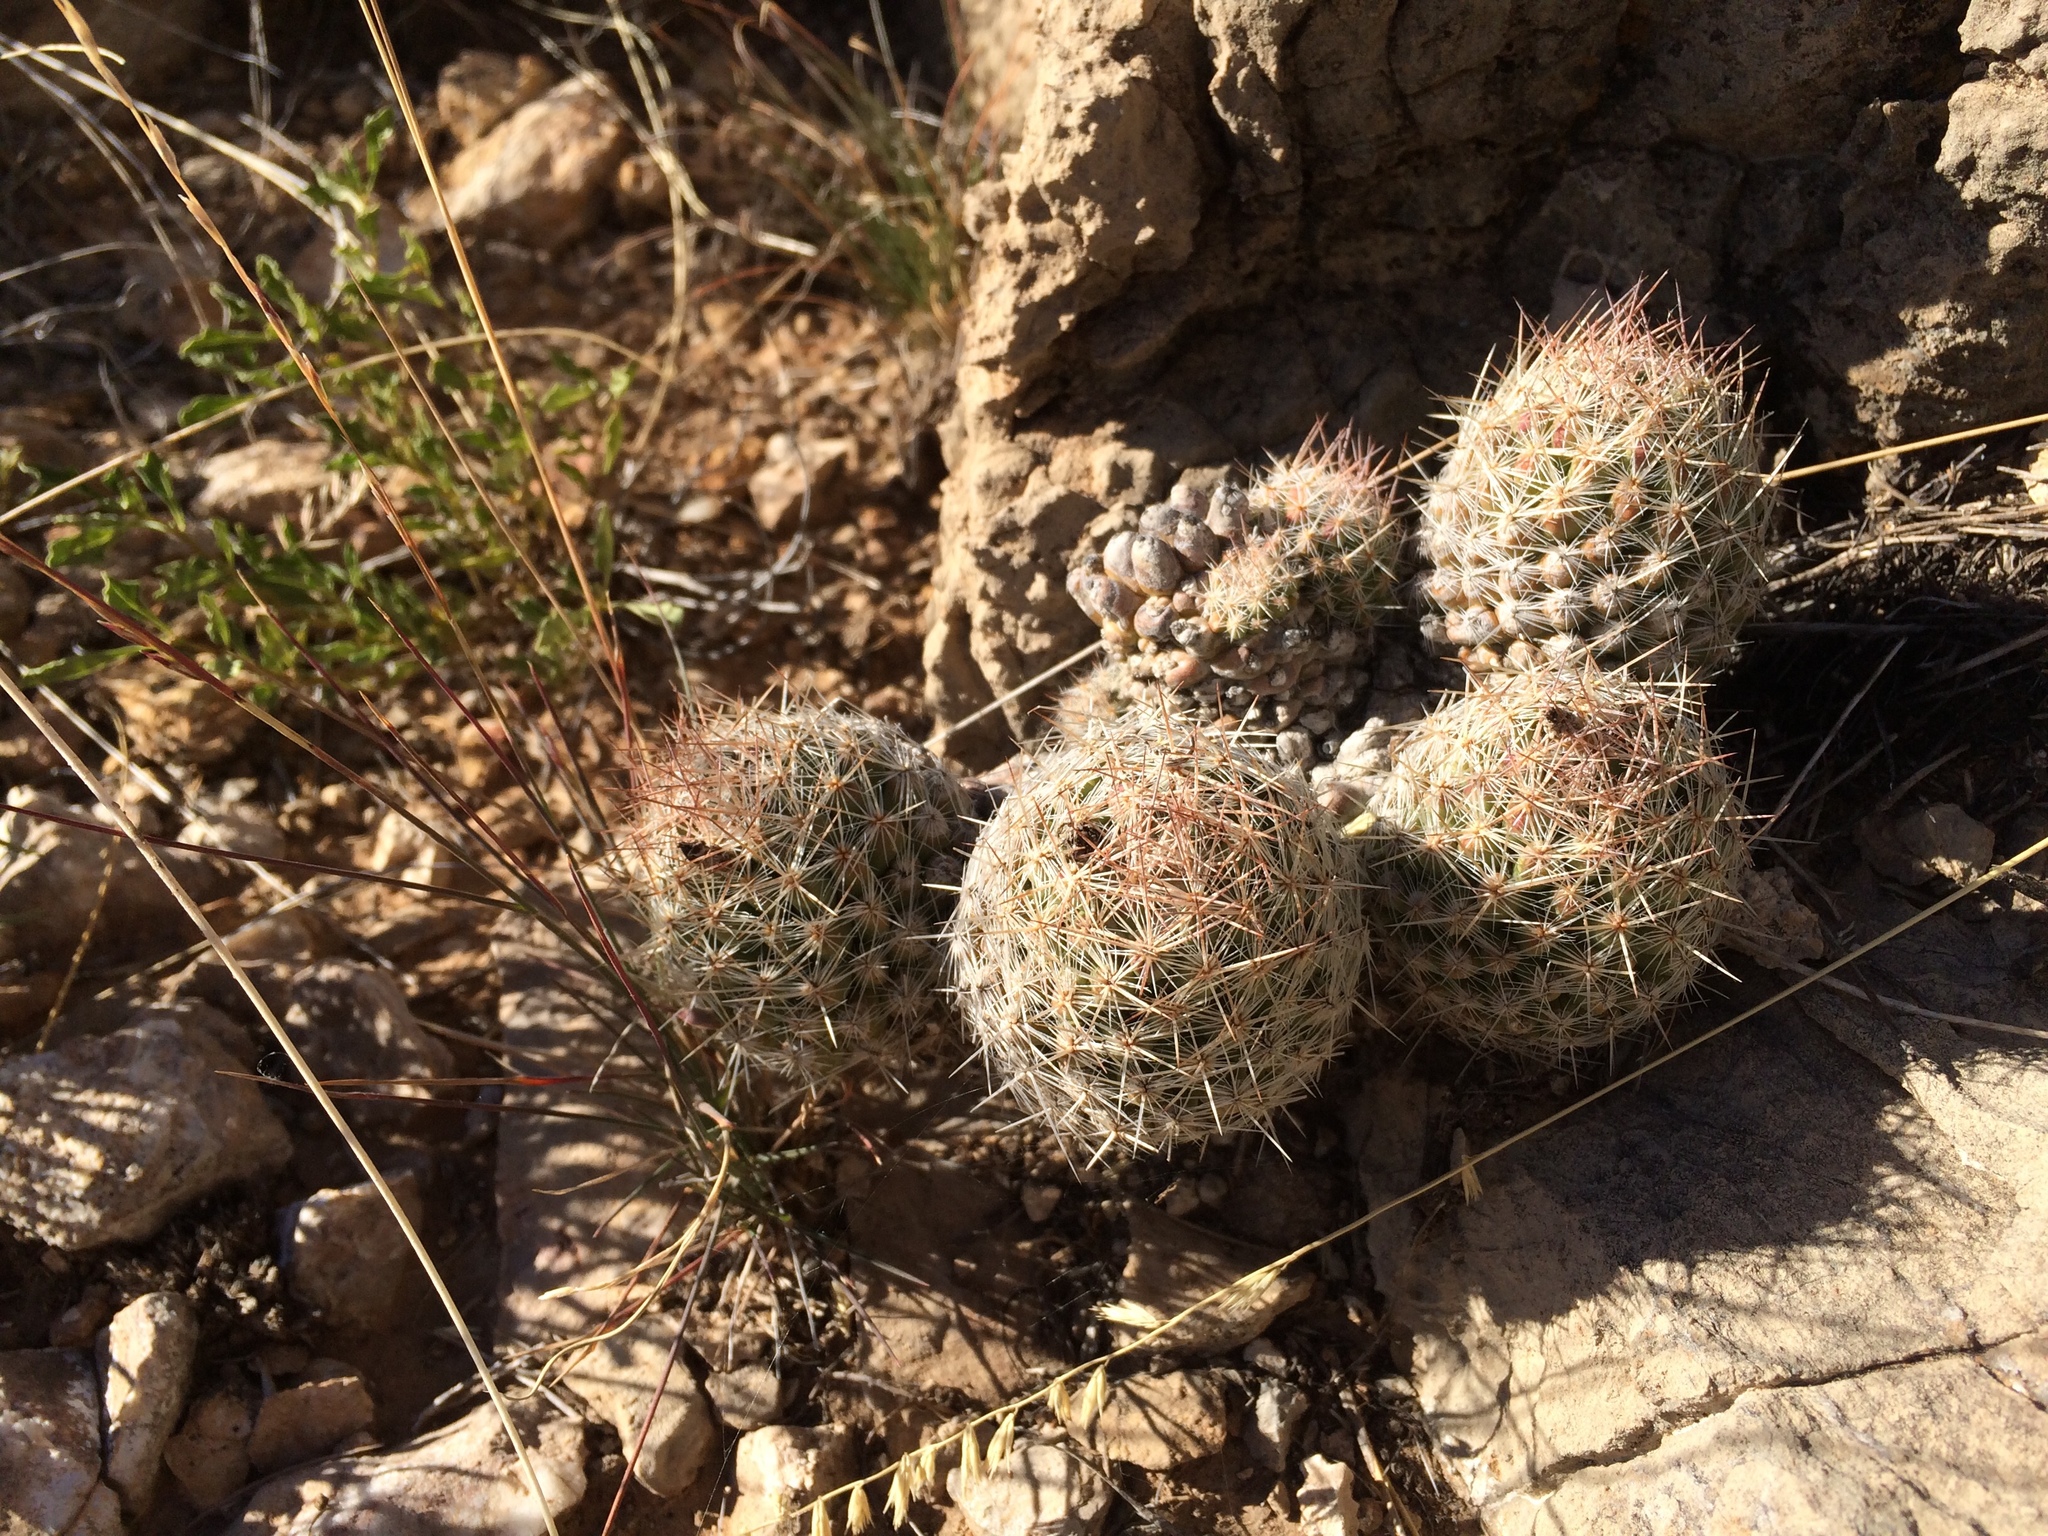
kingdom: Plantae
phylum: Tracheophyta
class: Magnoliopsida
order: Caryophyllales
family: Cactaceae
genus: Pelecyphora
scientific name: Pelecyphora tuberculosa
